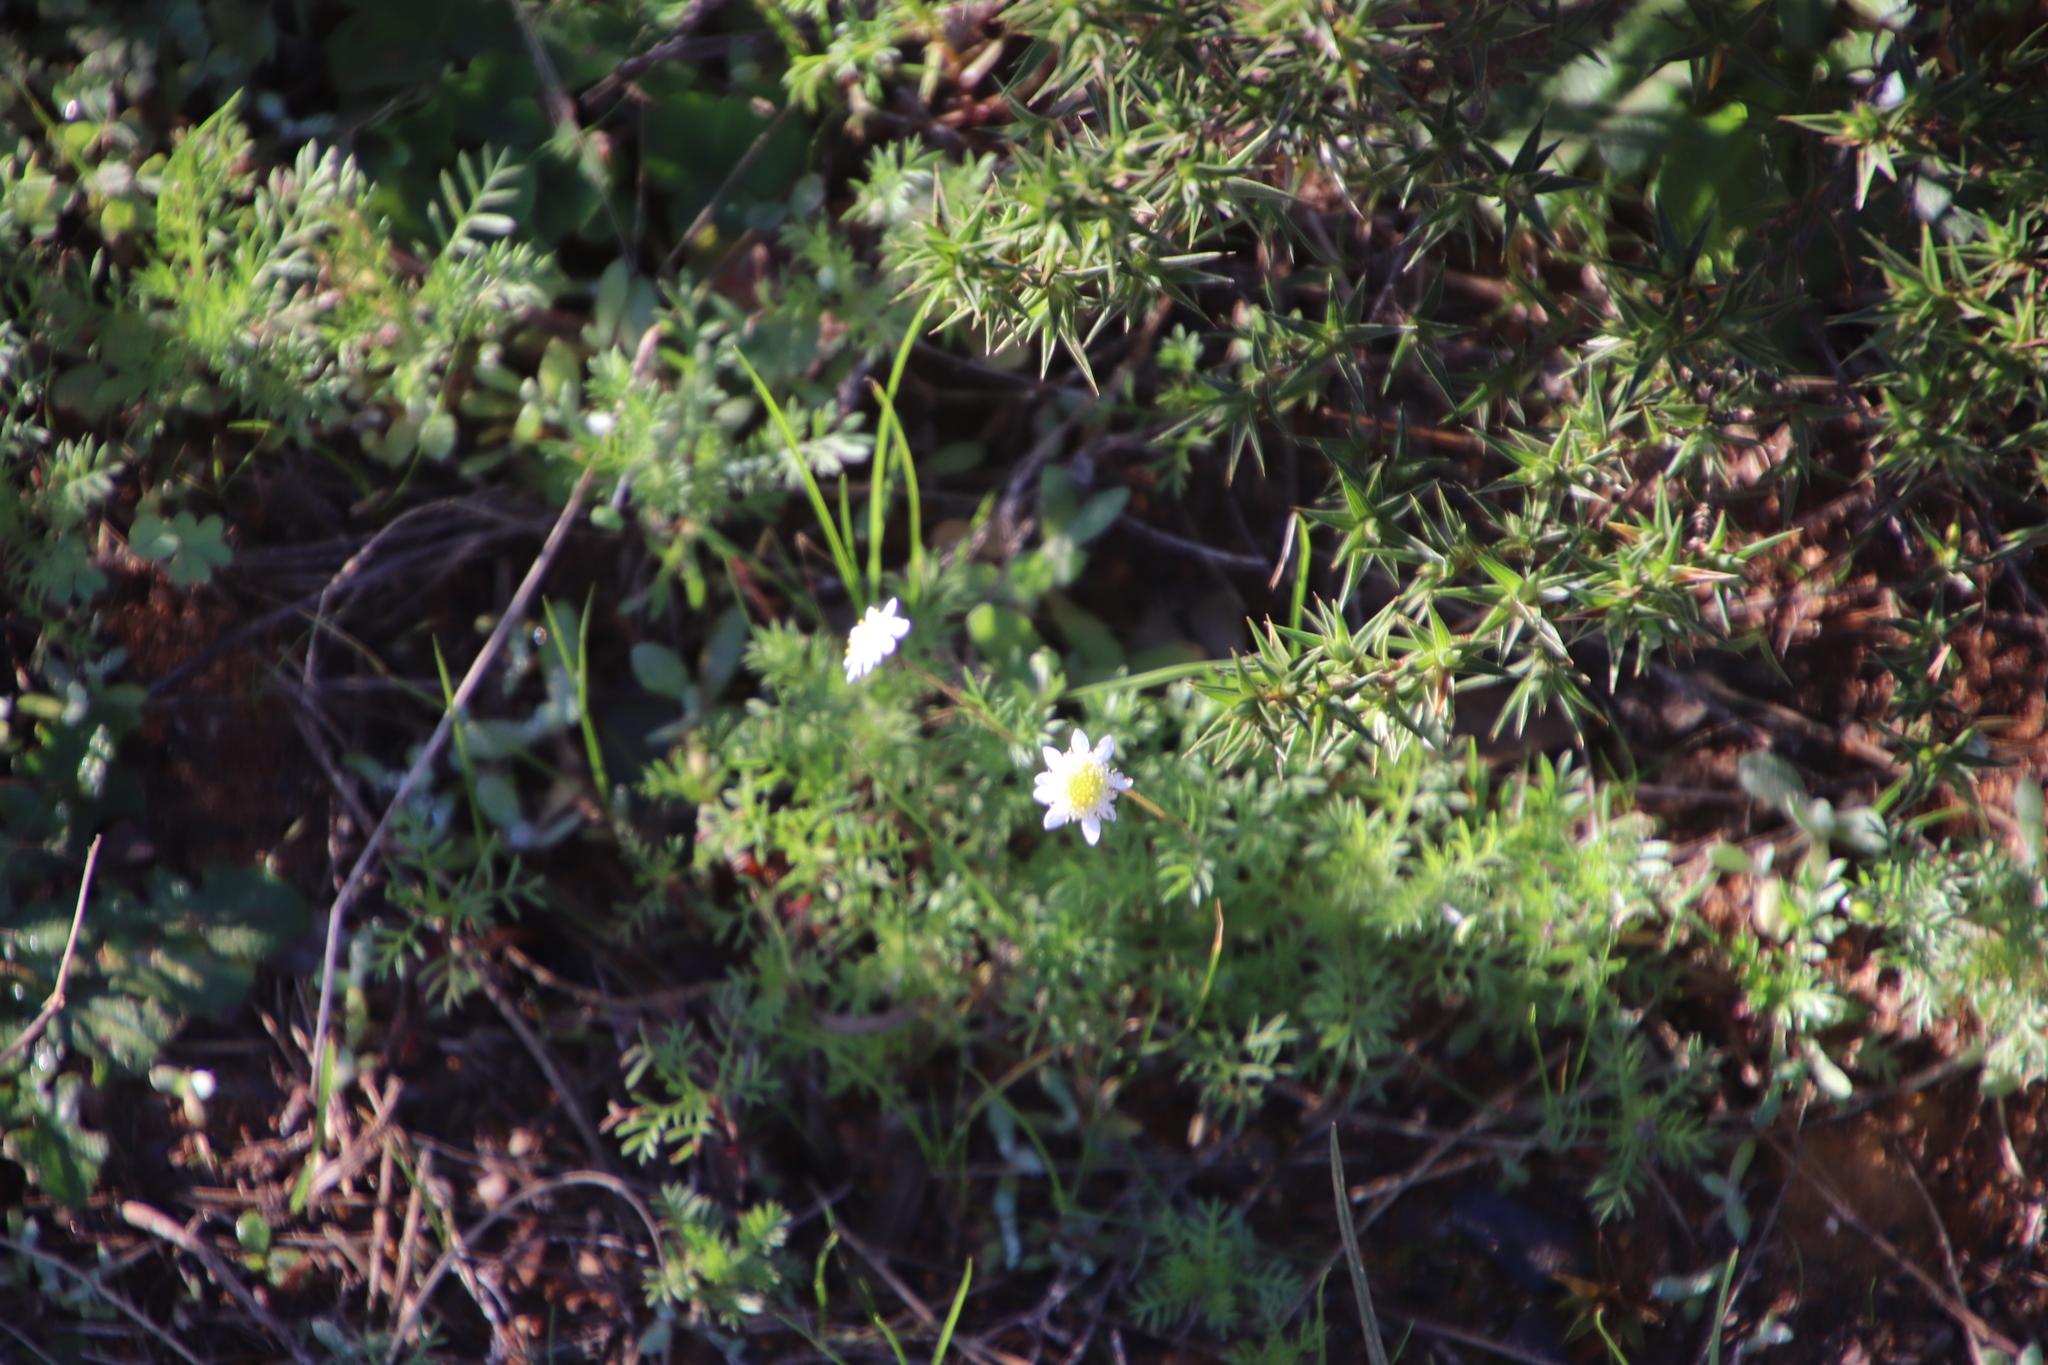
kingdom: Plantae
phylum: Tracheophyta
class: Magnoliopsida
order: Asterales
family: Asteraceae
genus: Cotula
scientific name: Cotula turbinata
